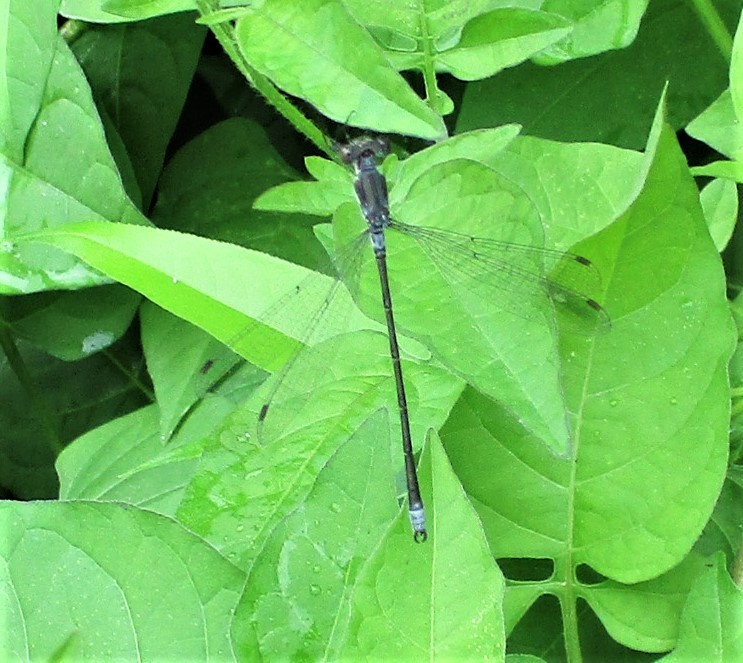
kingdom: Animalia
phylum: Arthropoda
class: Insecta
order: Odonata
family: Lestidae
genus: Lestes
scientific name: Lestes congener
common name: Spotted spreadwing
